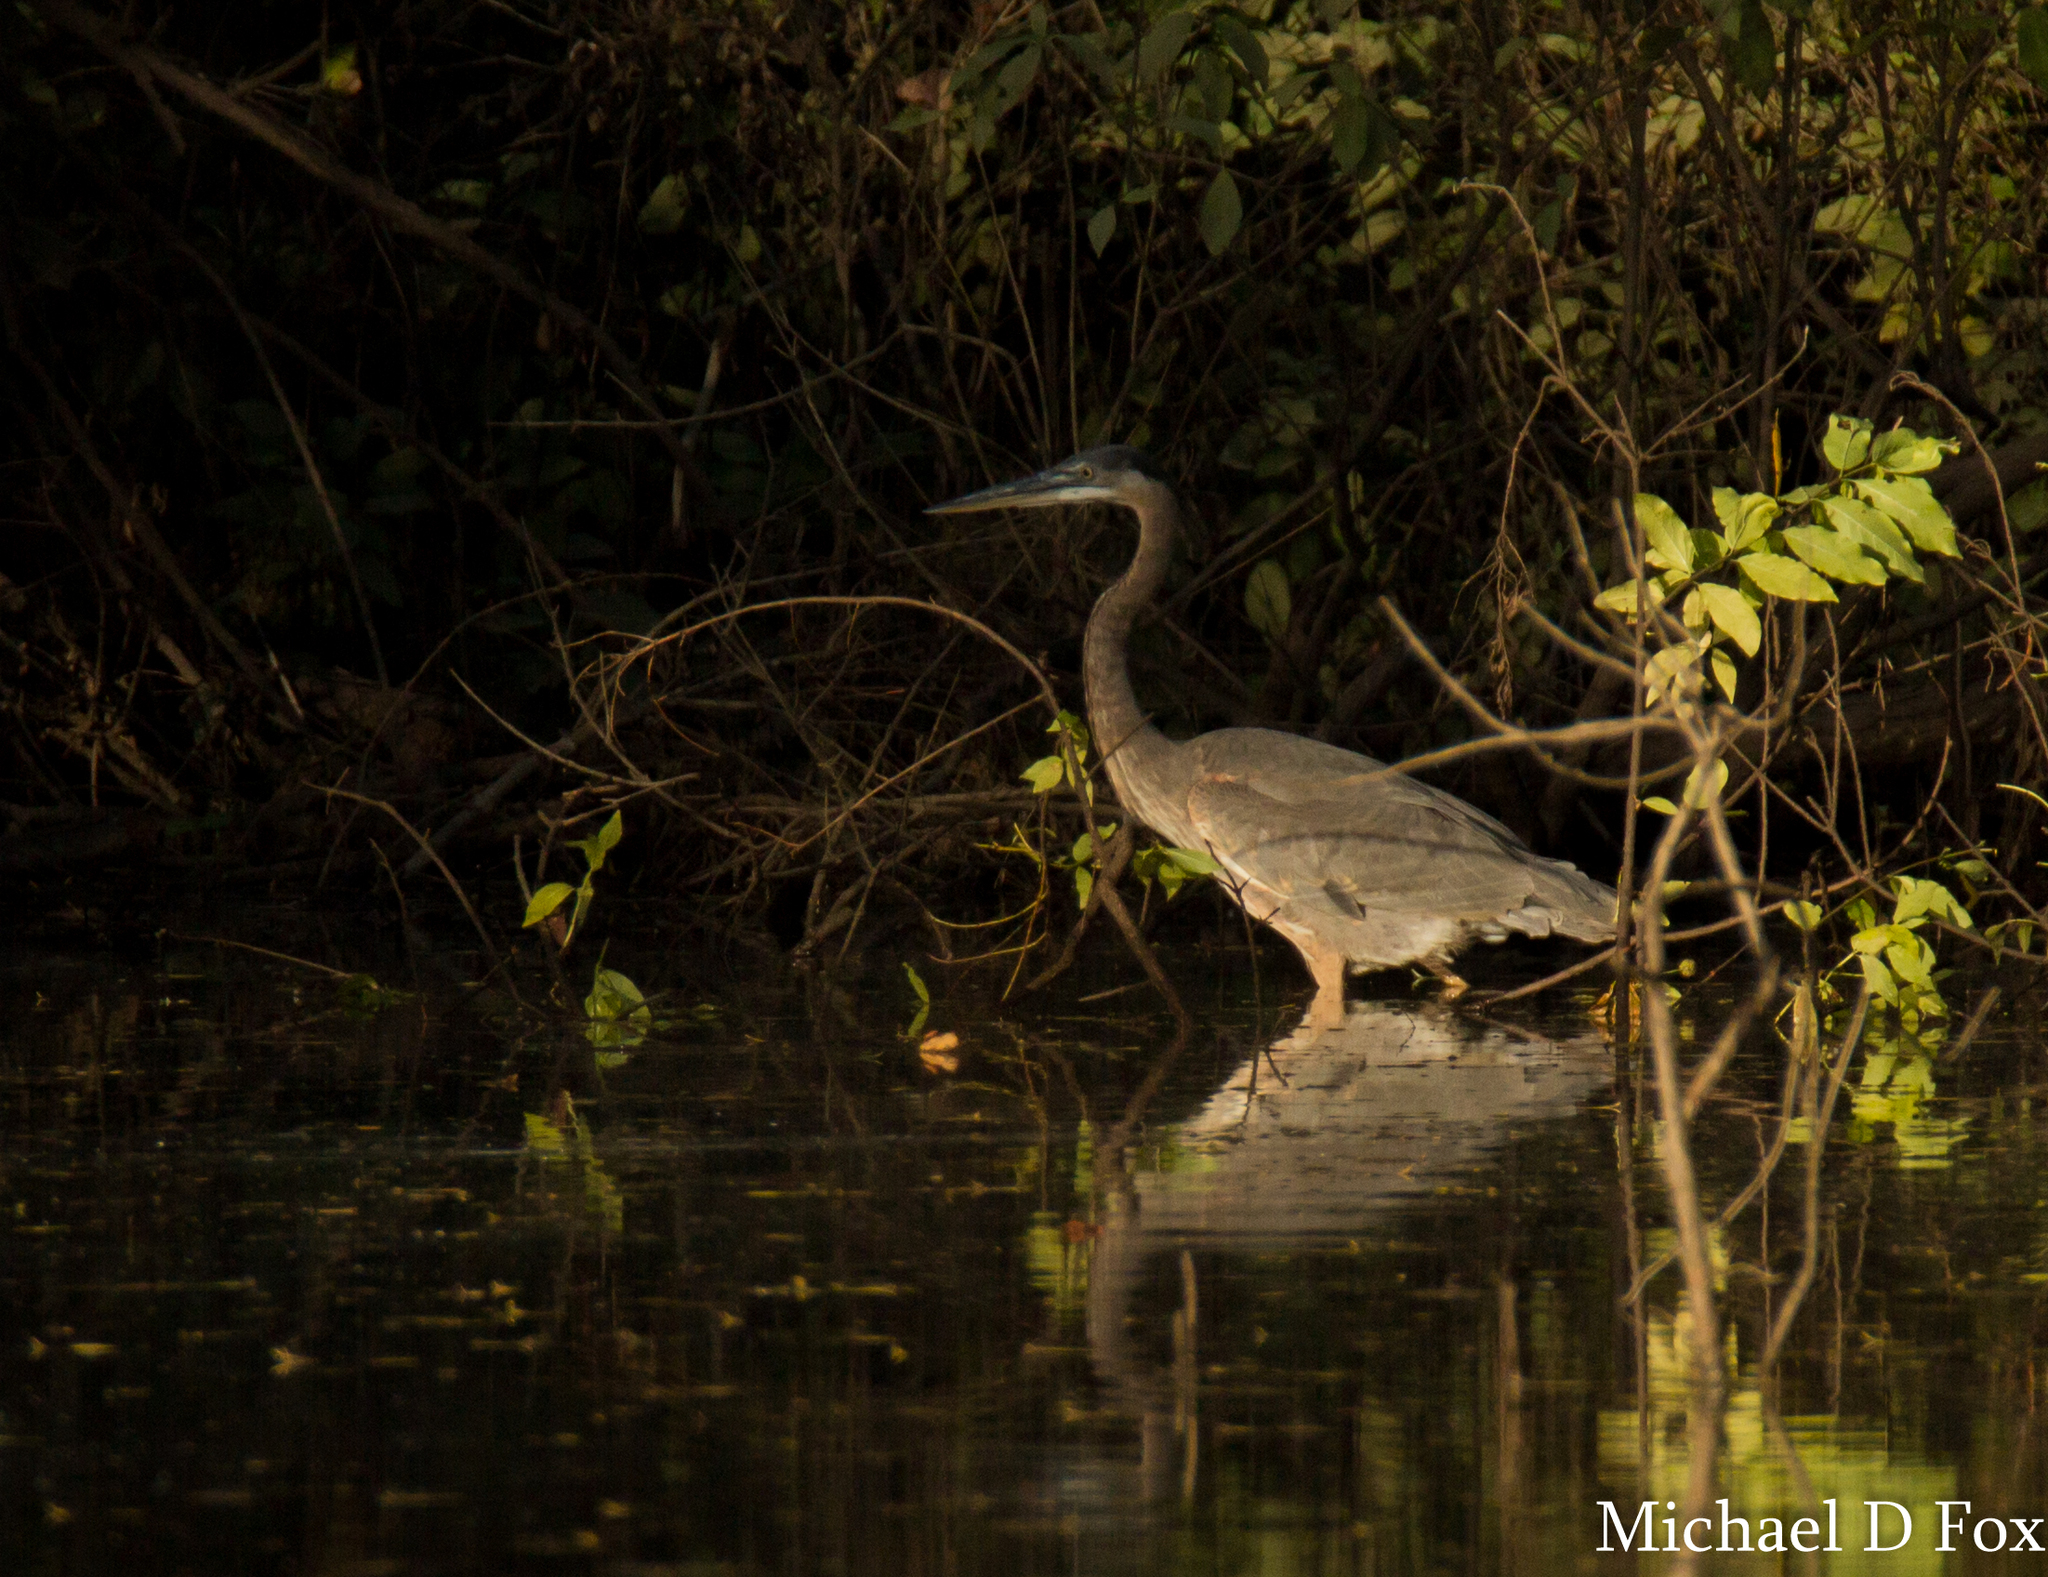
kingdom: Animalia
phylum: Chordata
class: Aves
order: Pelecaniformes
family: Ardeidae
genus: Ardea
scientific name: Ardea herodias
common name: Great blue heron
